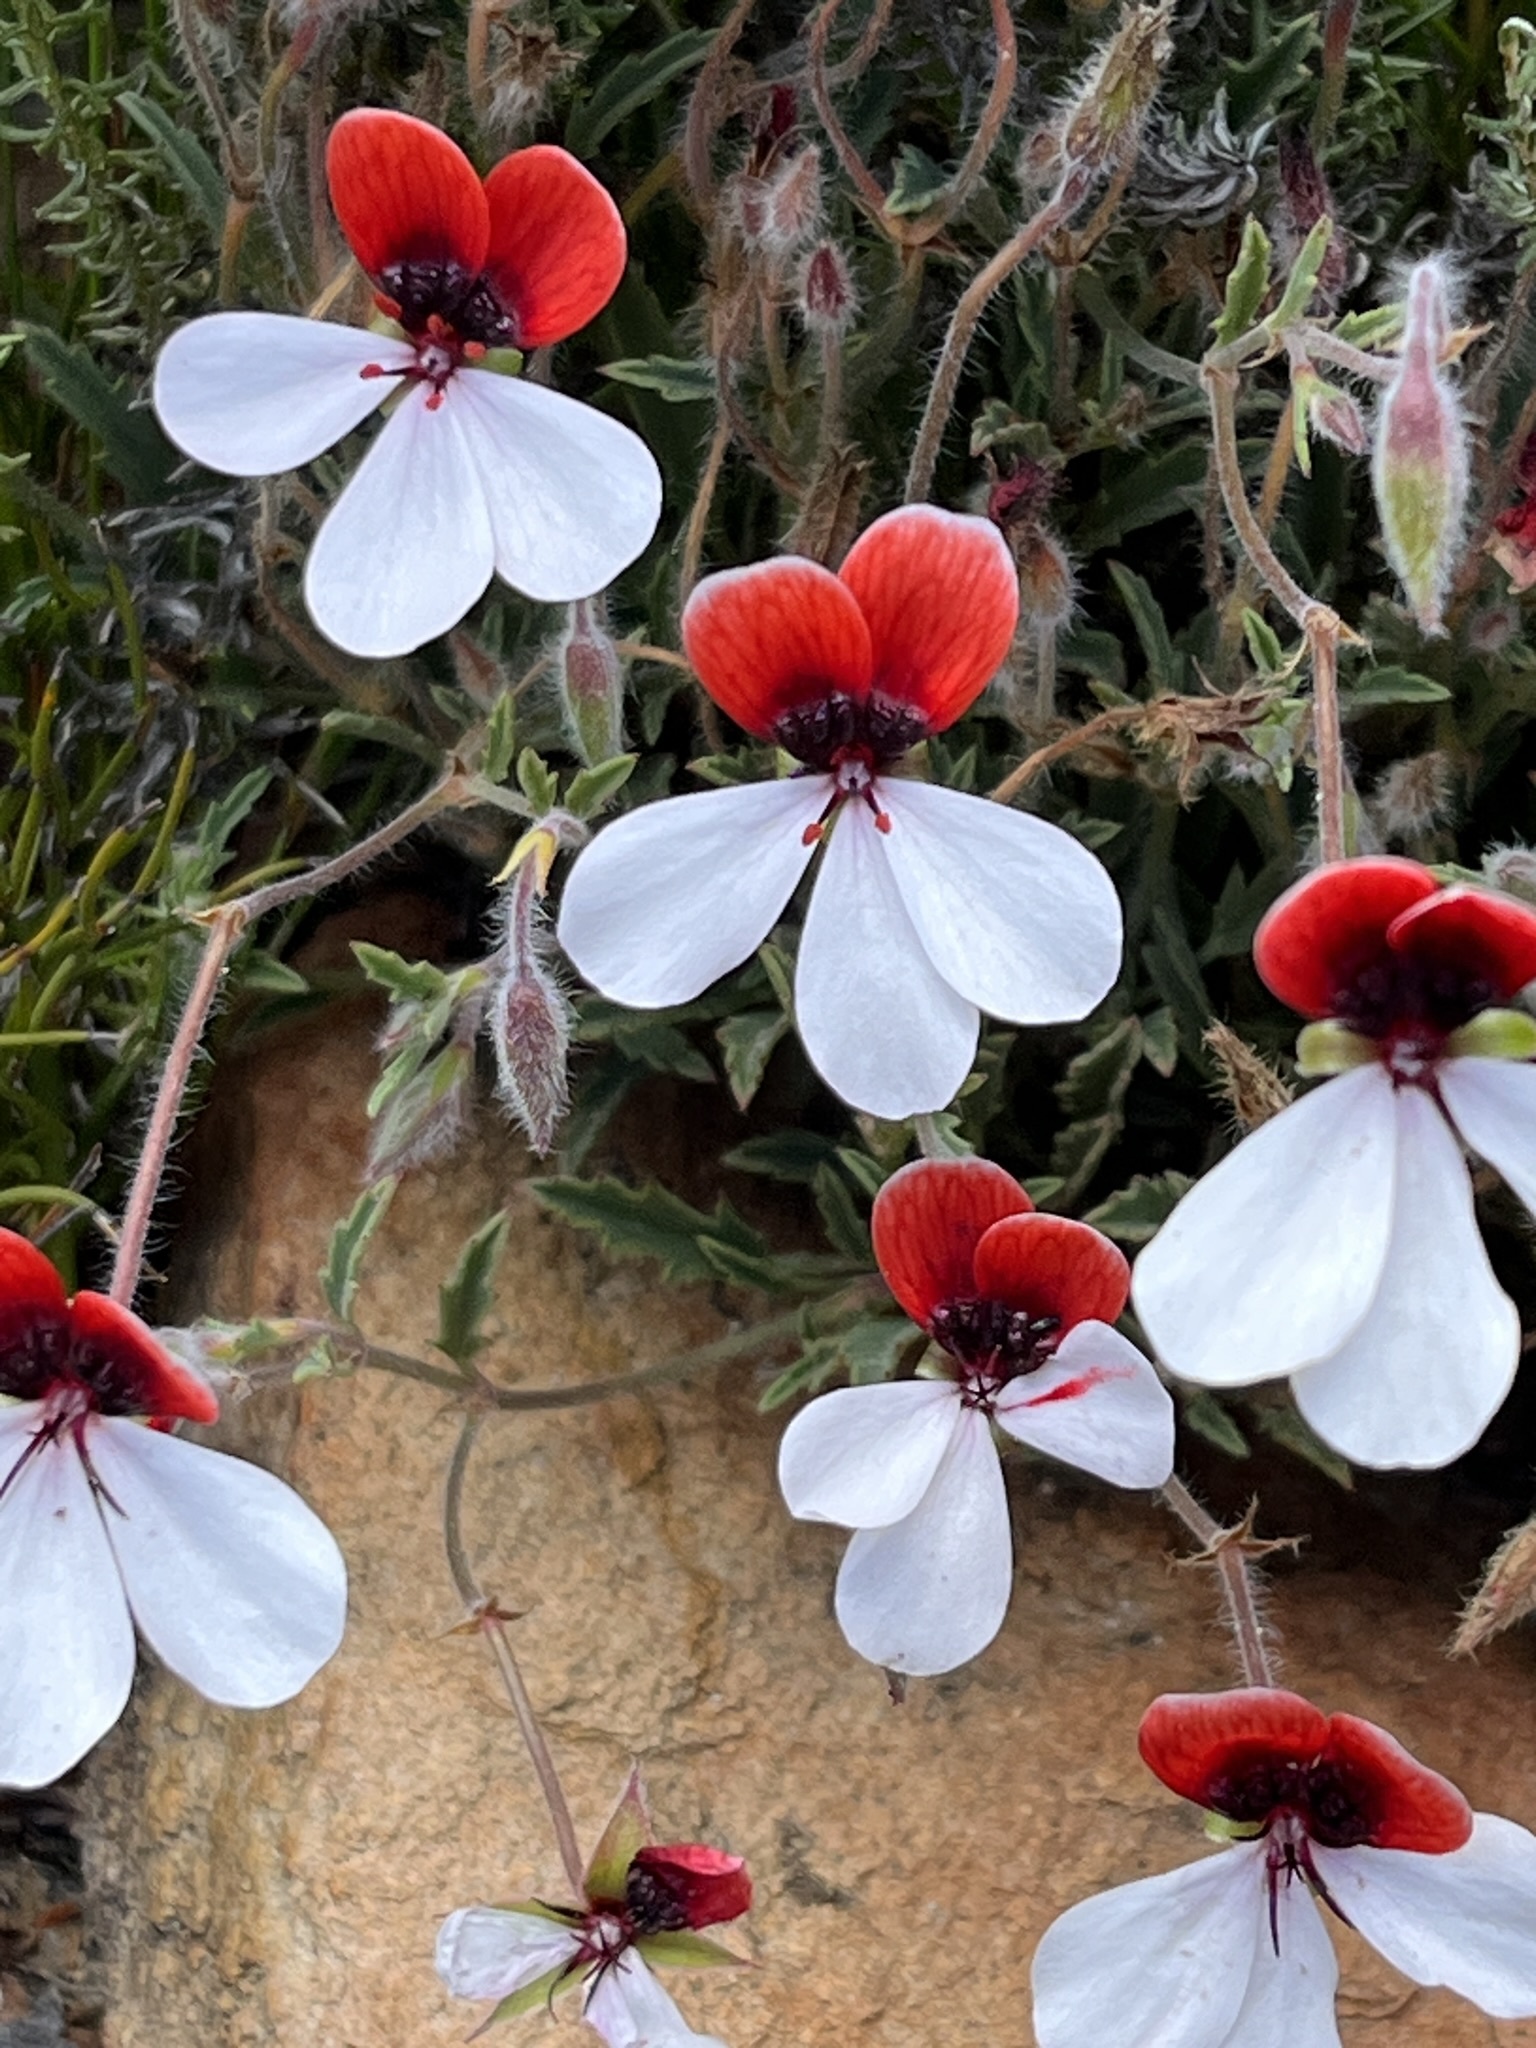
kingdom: Plantae
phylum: Tracheophyta
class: Magnoliopsida
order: Geraniales
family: Geraniaceae
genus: Pelargonium
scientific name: Pelargonium tricolor
